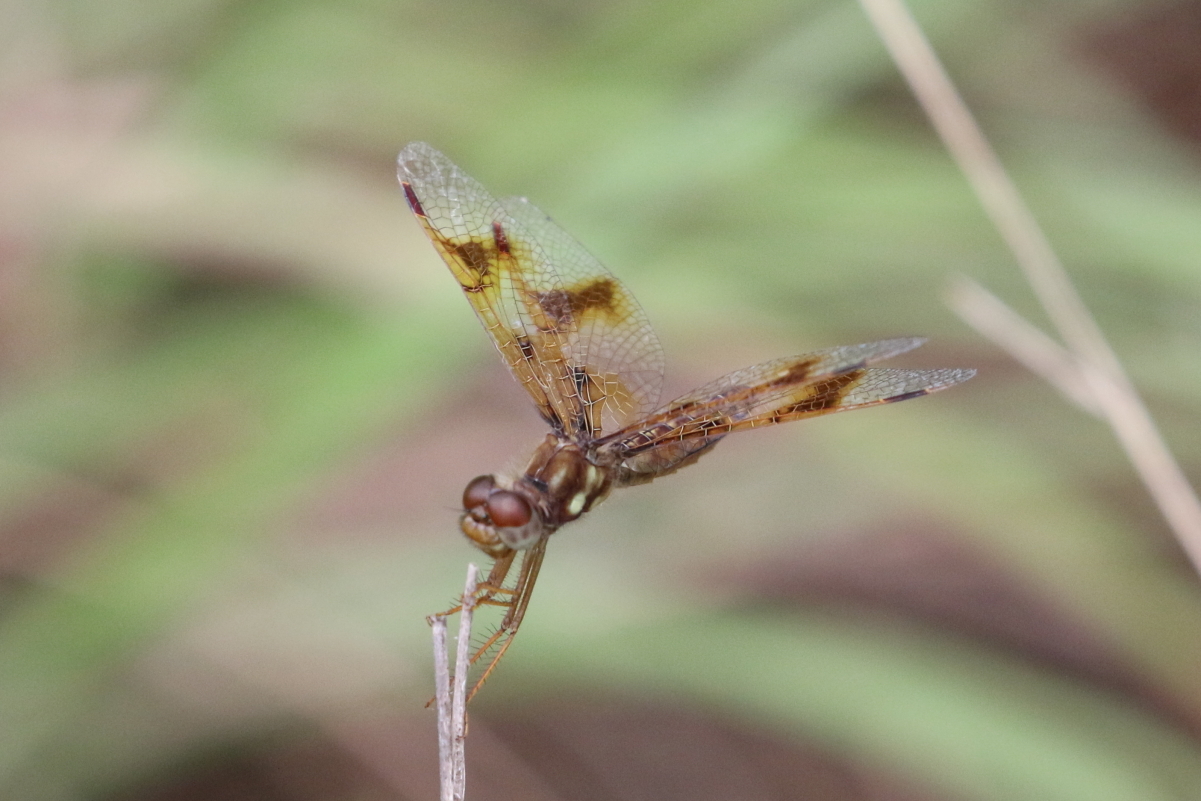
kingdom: Animalia
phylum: Arthropoda
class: Insecta
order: Odonata
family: Libellulidae
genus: Perithemis
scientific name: Perithemis tenera
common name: Eastern amberwing
